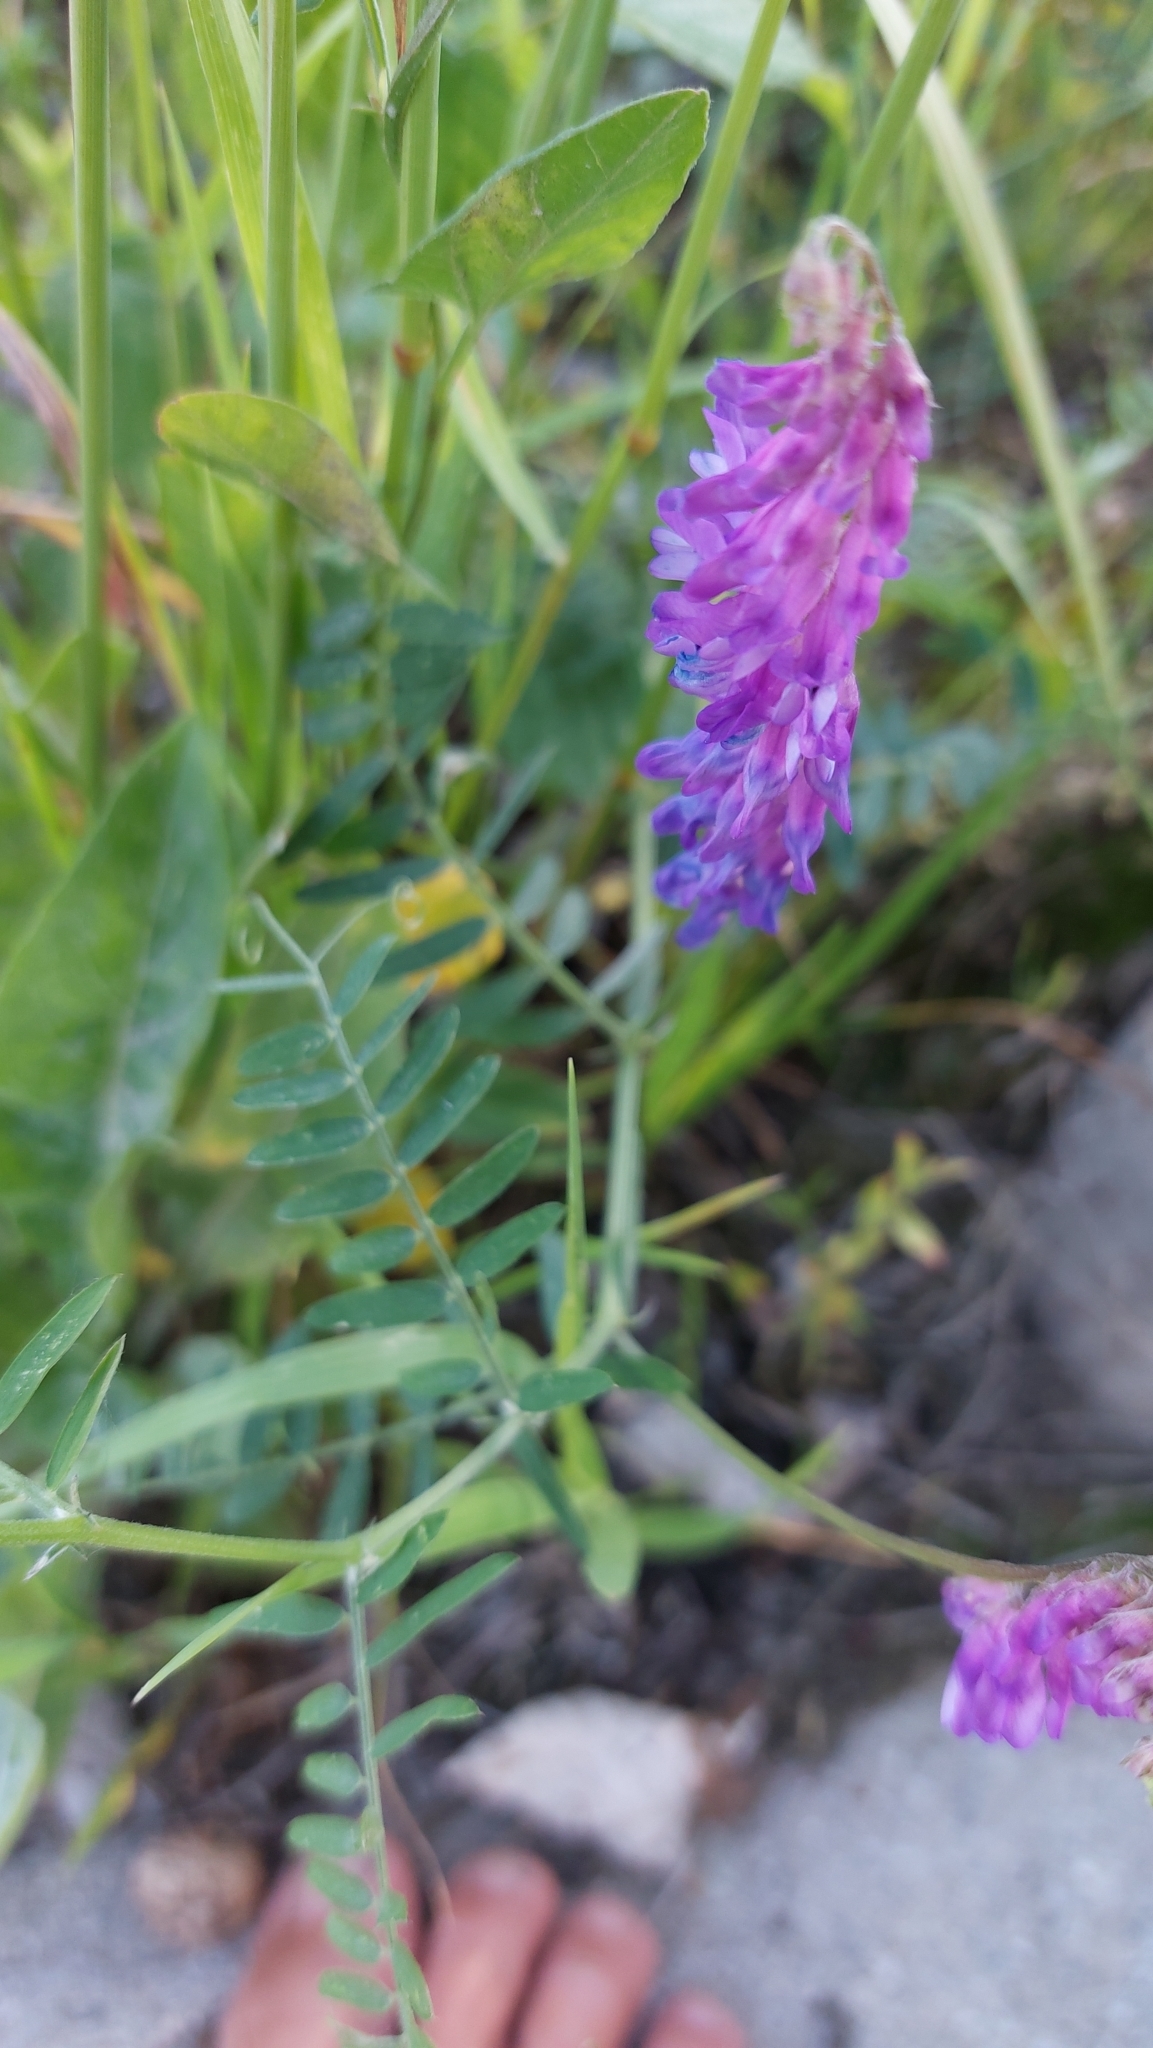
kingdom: Plantae
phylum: Tracheophyta
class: Magnoliopsida
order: Fabales
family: Fabaceae
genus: Vicia
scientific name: Vicia cracca
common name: Bird vetch
